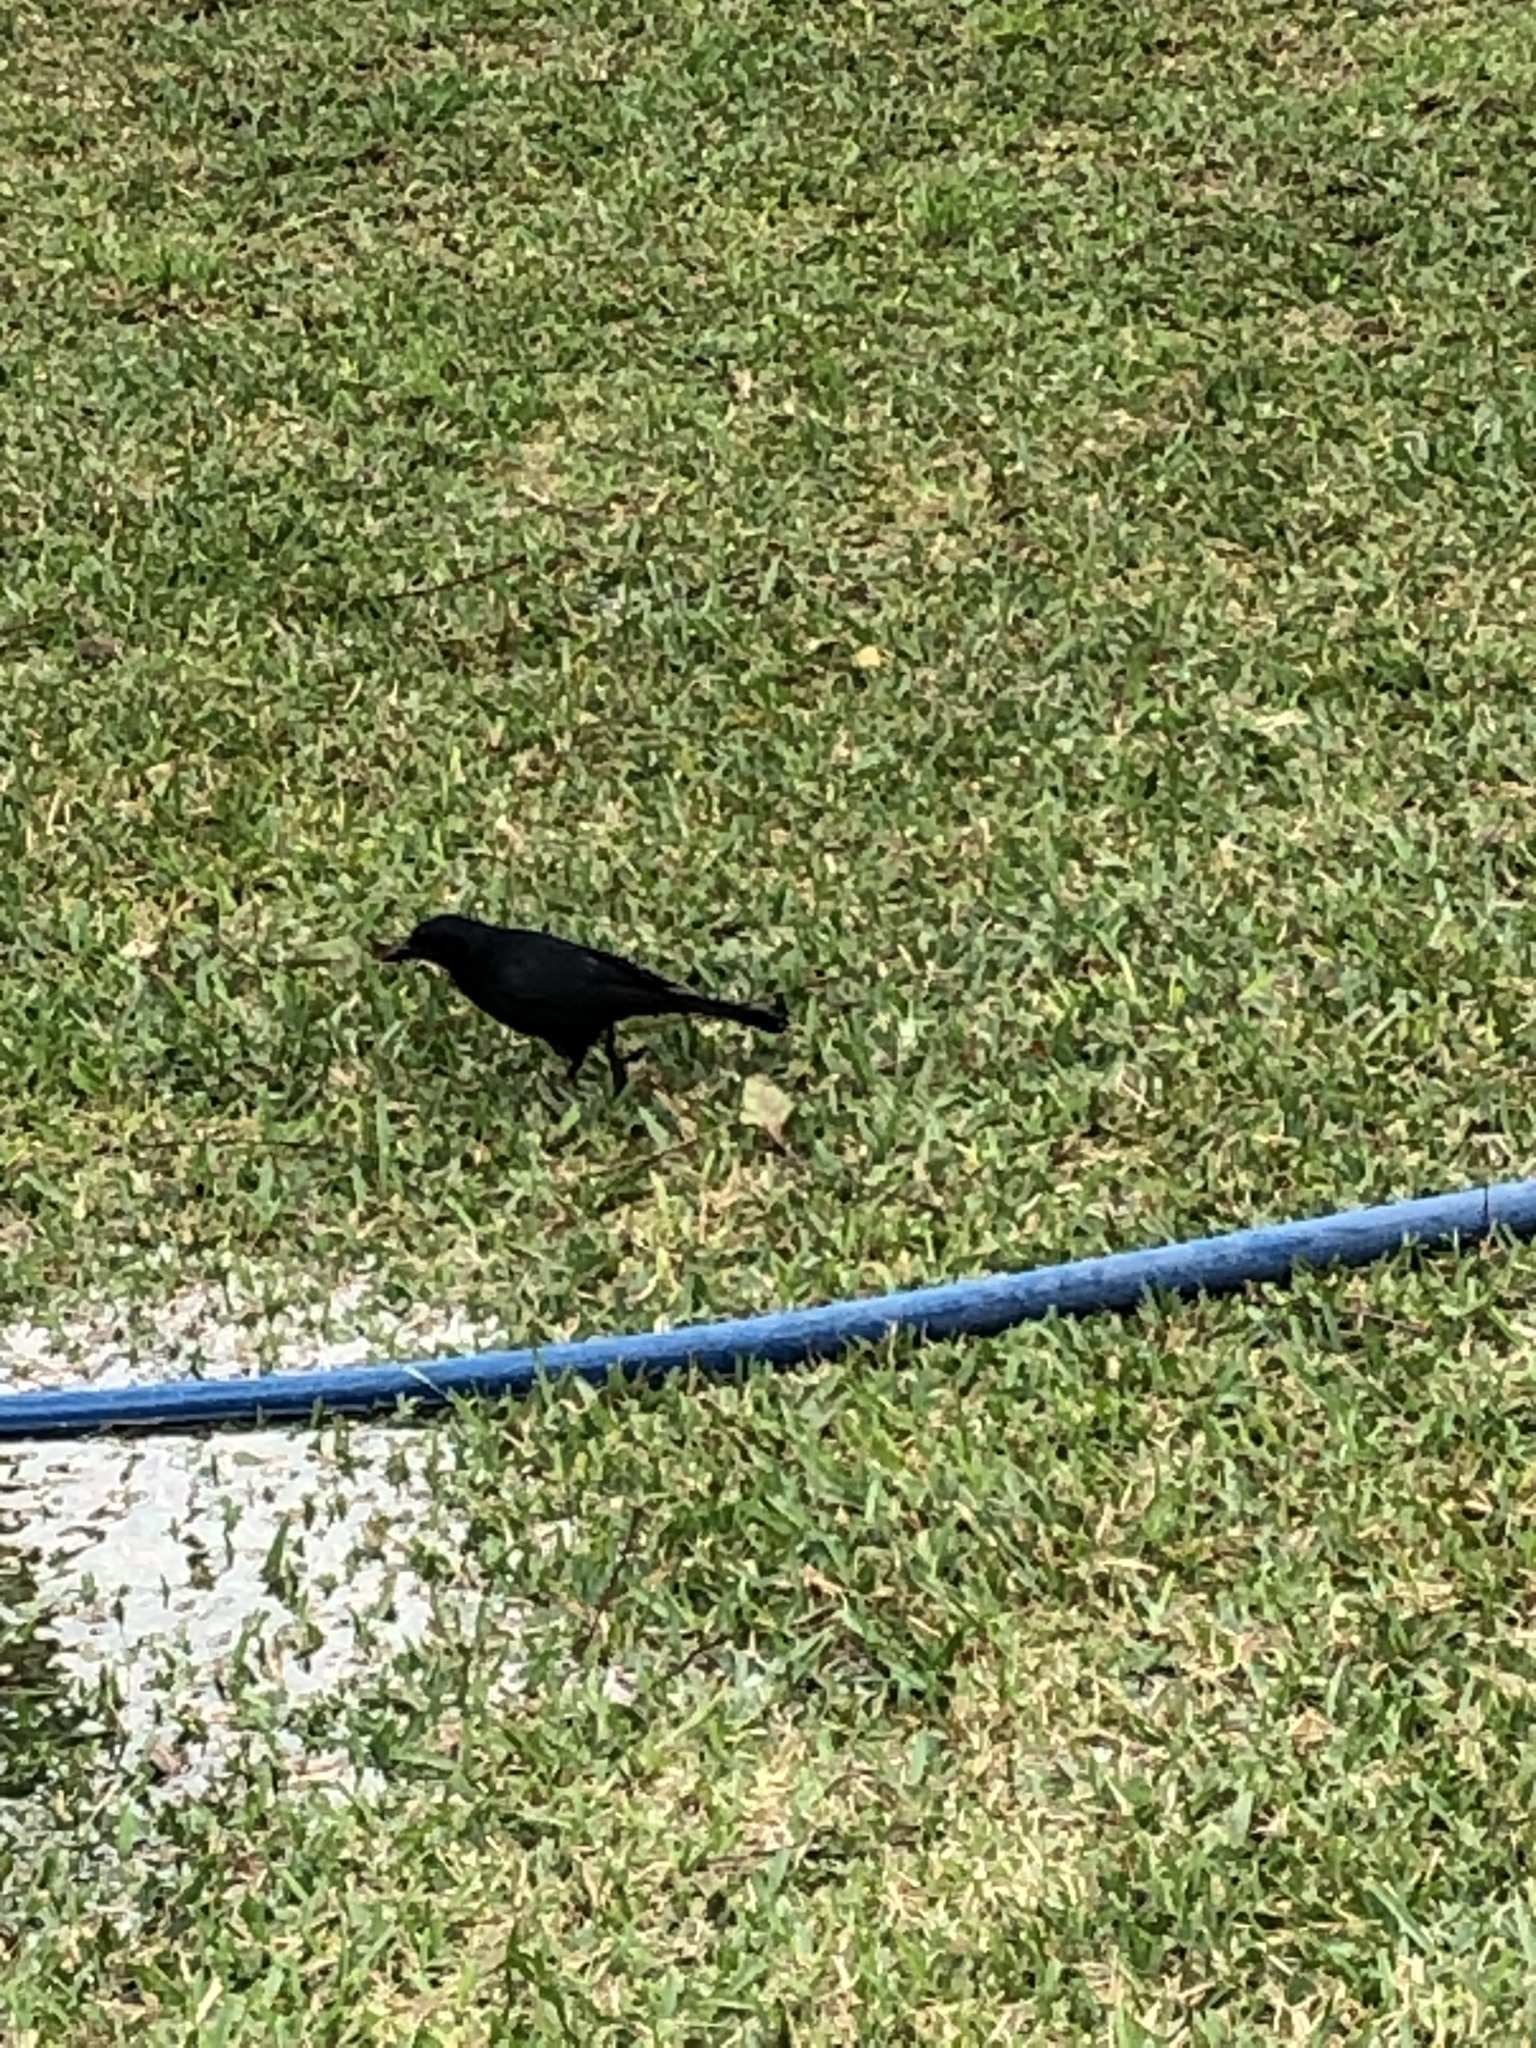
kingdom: Animalia
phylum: Chordata
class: Aves
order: Passeriformes
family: Icteridae
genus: Molothrus
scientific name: Molothrus bonariensis
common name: Shiny cowbird
